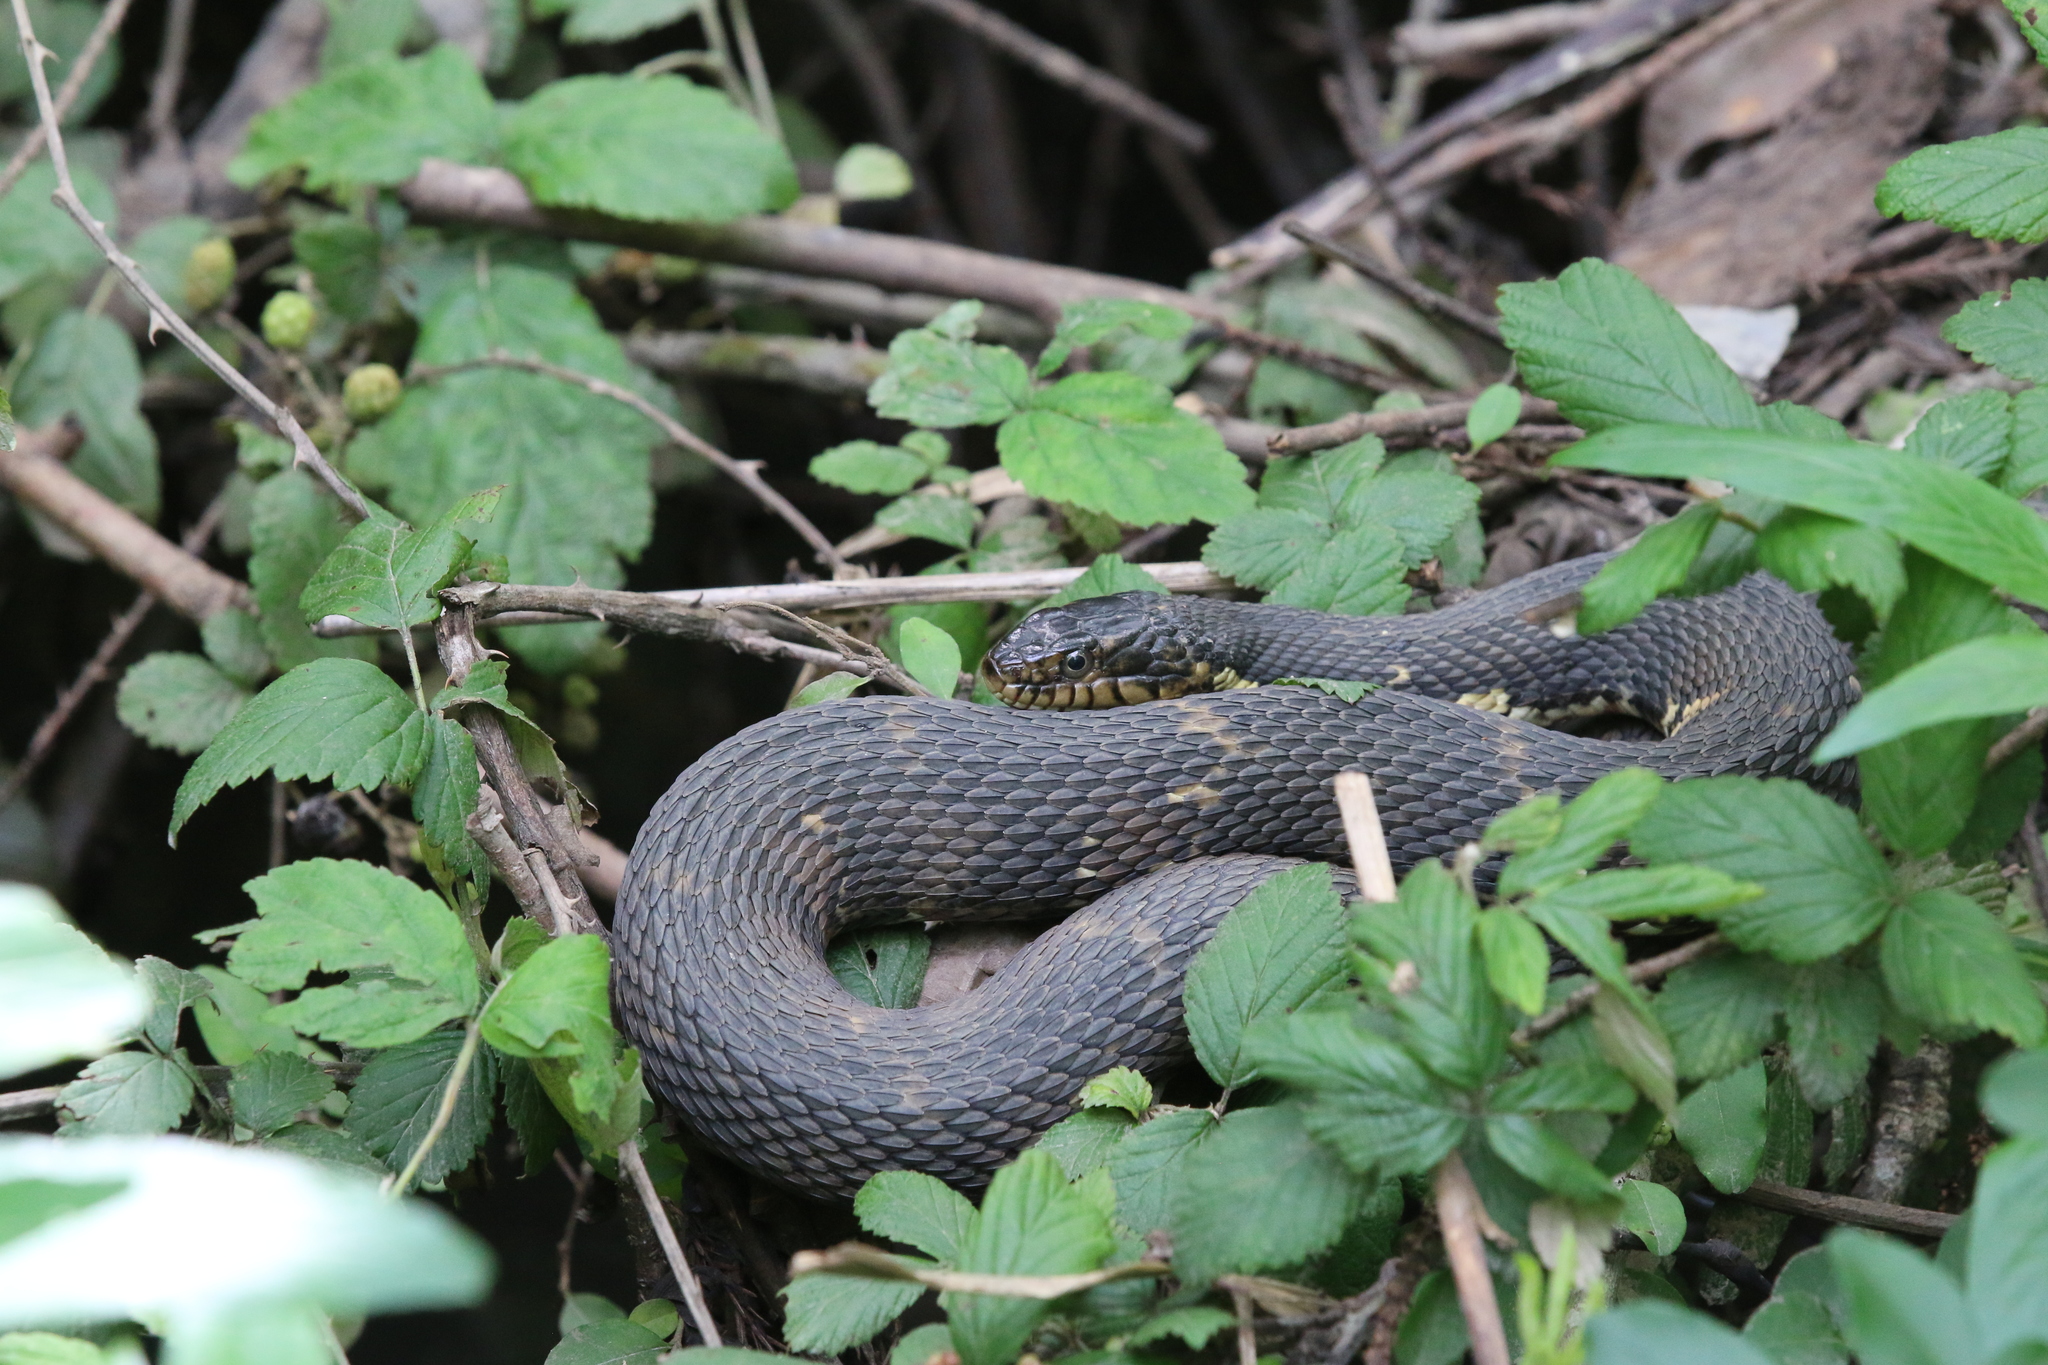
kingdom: Animalia
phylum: Chordata
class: Squamata
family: Colubridae
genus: Nerodia
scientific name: Nerodia fasciata
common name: Southern water snake
